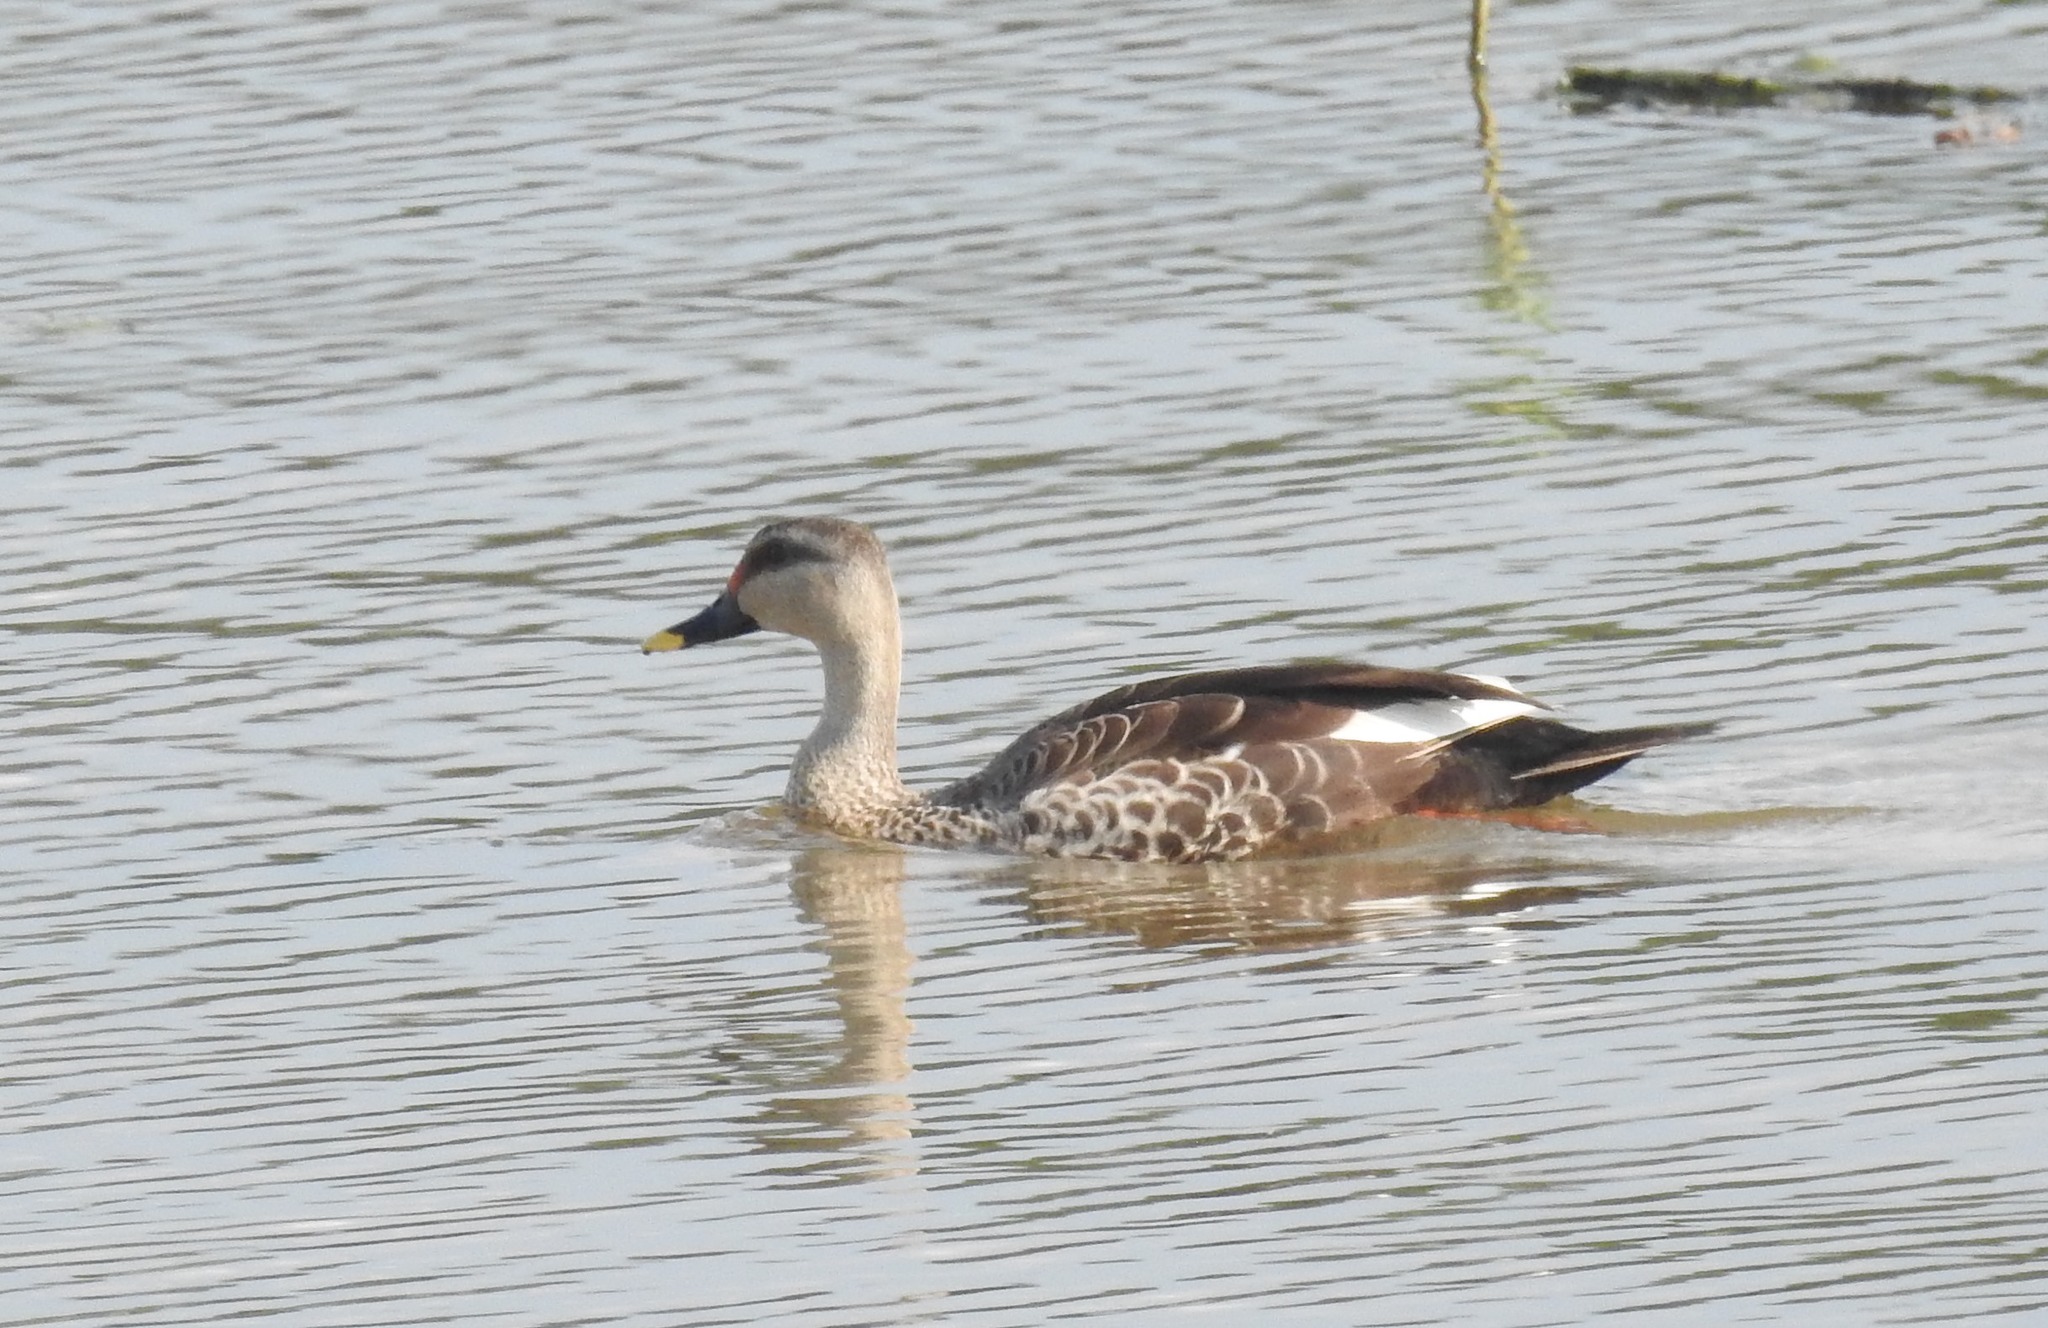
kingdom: Animalia
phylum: Chordata
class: Aves
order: Anseriformes
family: Anatidae
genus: Anas
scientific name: Anas poecilorhyncha
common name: Indian spot-billed duck
